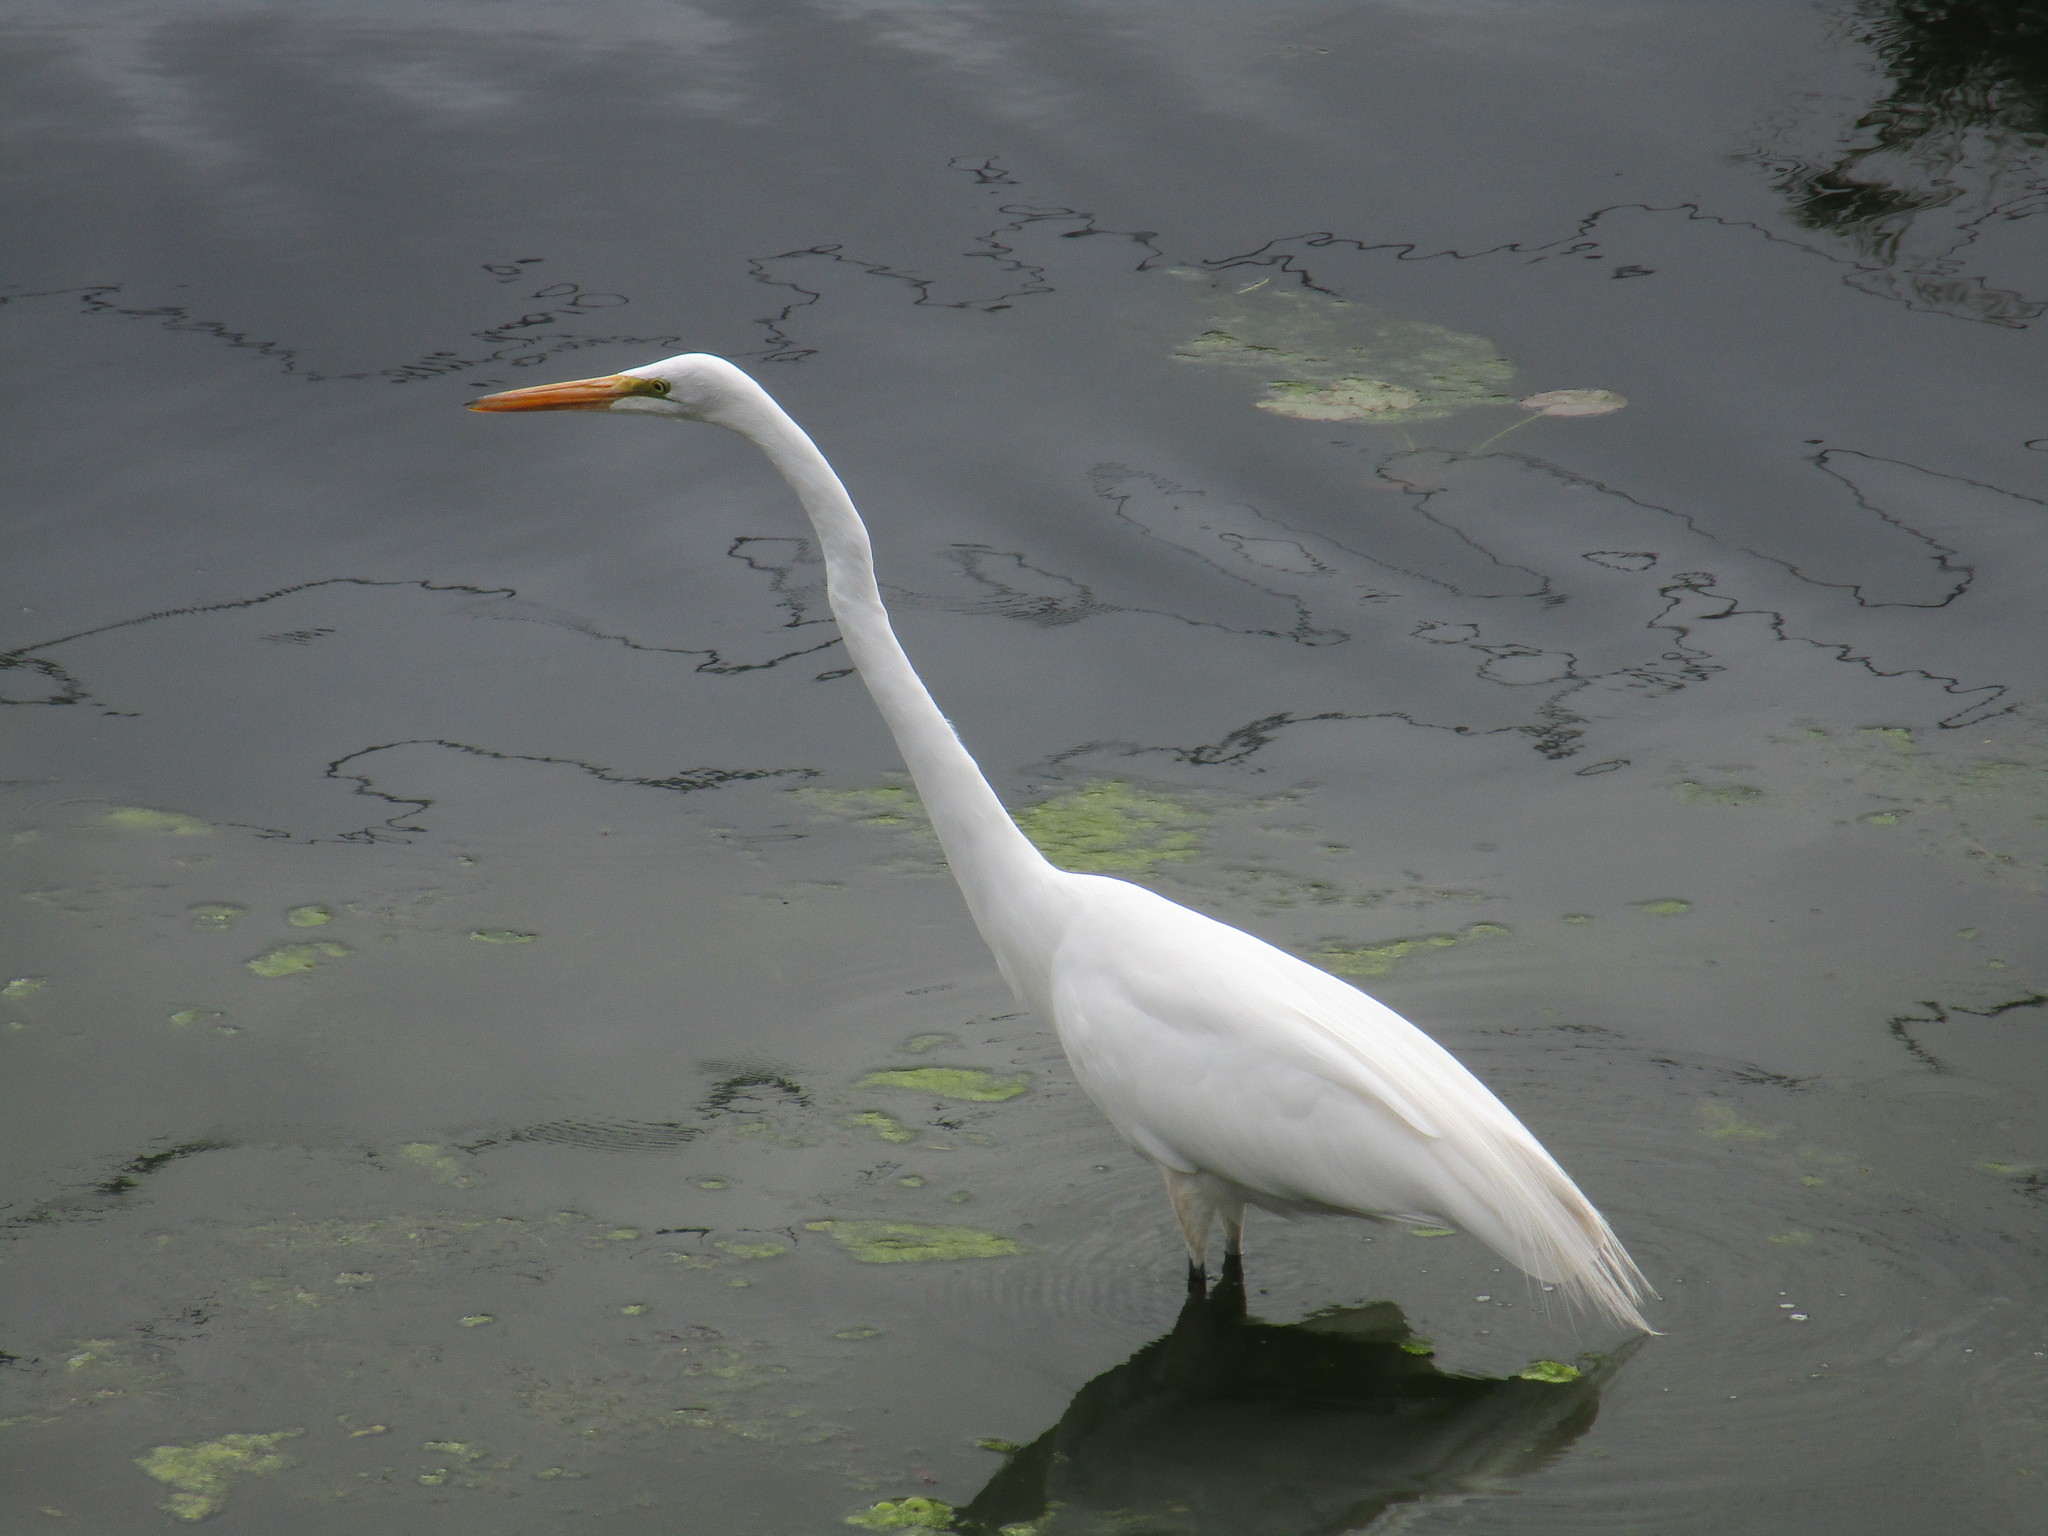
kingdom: Animalia
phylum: Chordata
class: Aves
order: Pelecaniformes
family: Ardeidae
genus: Ardea
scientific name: Ardea alba
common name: Great egret
